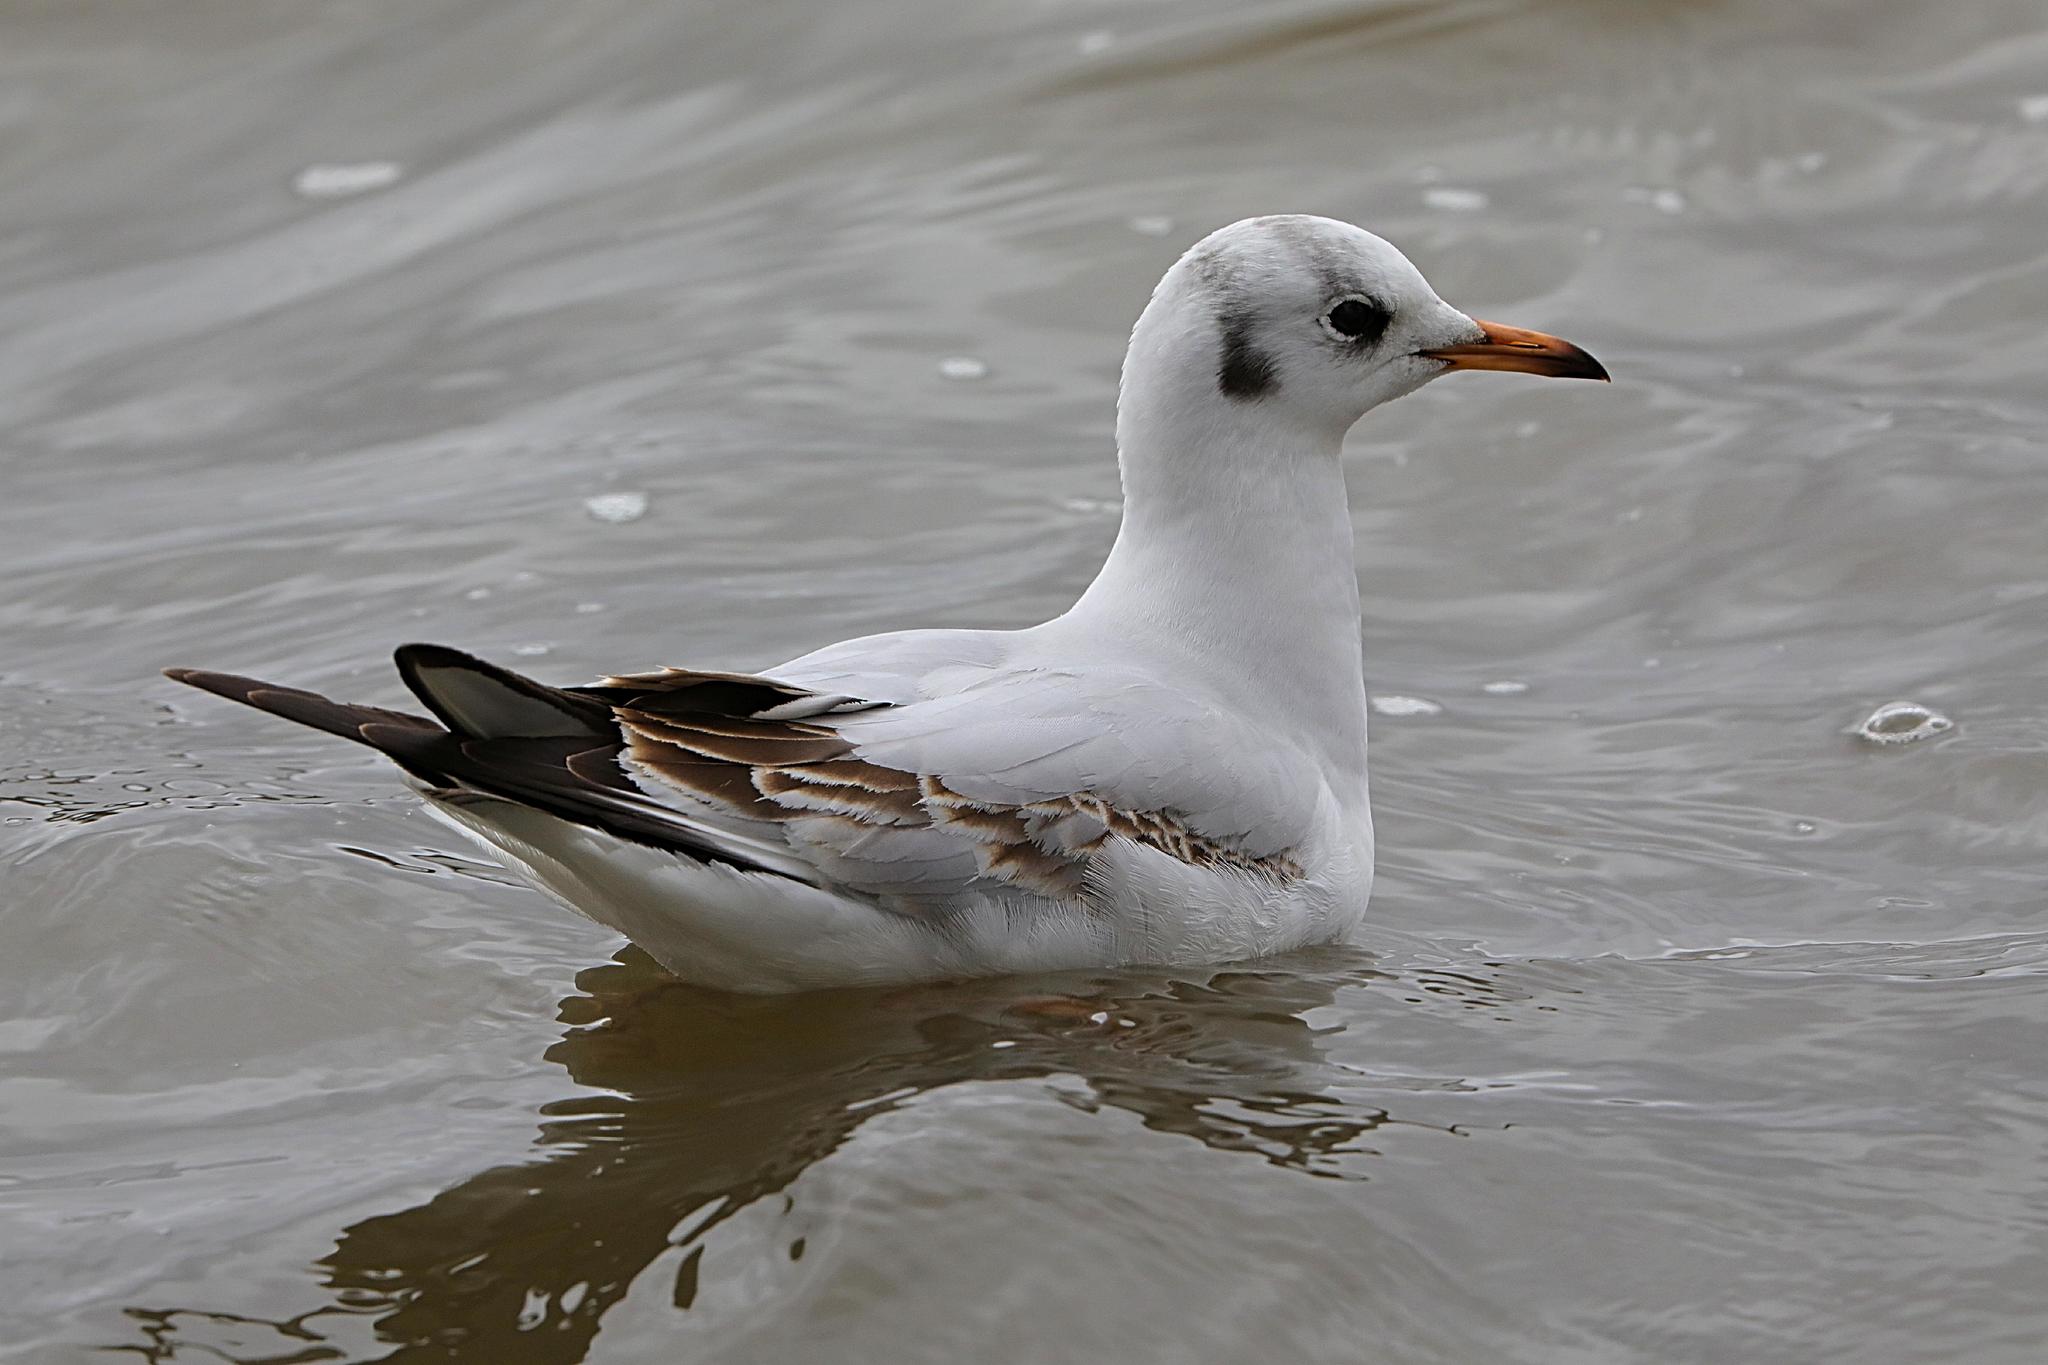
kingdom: Animalia
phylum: Chordata
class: Aves
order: Charadriiformes
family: Laridae
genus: Chroicocephalus
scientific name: Chroicocephalus ridibundus
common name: Black-headed gull
